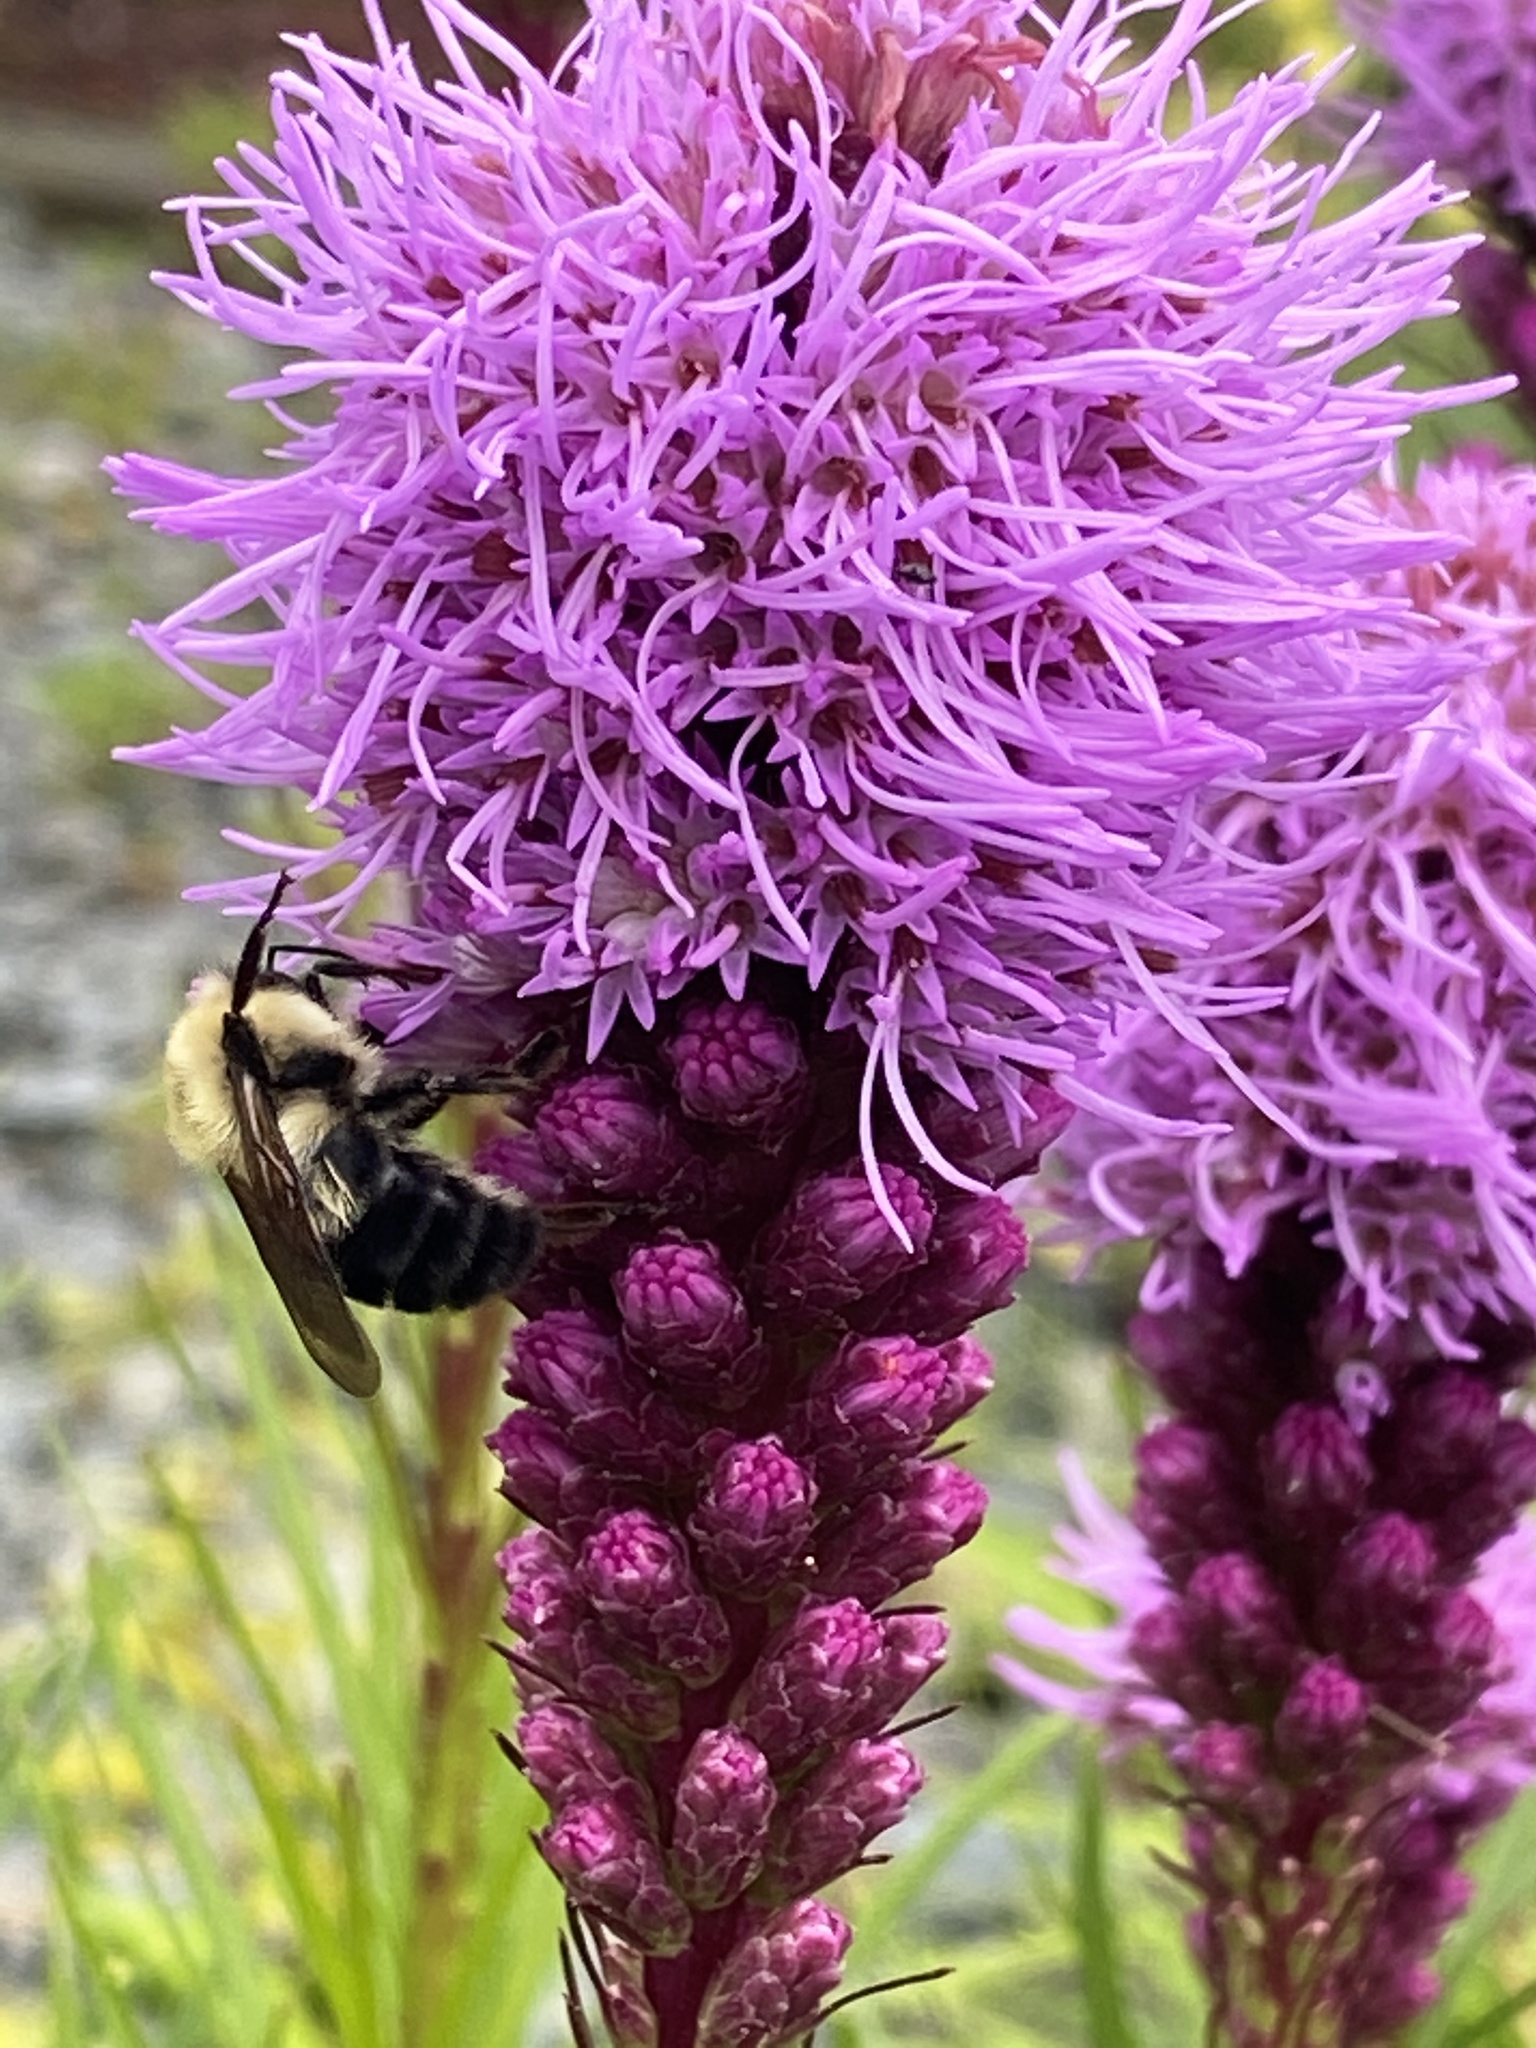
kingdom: Animalia
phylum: Arthropoda
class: Insecta
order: Hymenoptera
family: Apidae
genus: Bombus
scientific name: Bombus bimaculatus
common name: Two-spotted bumble bee
